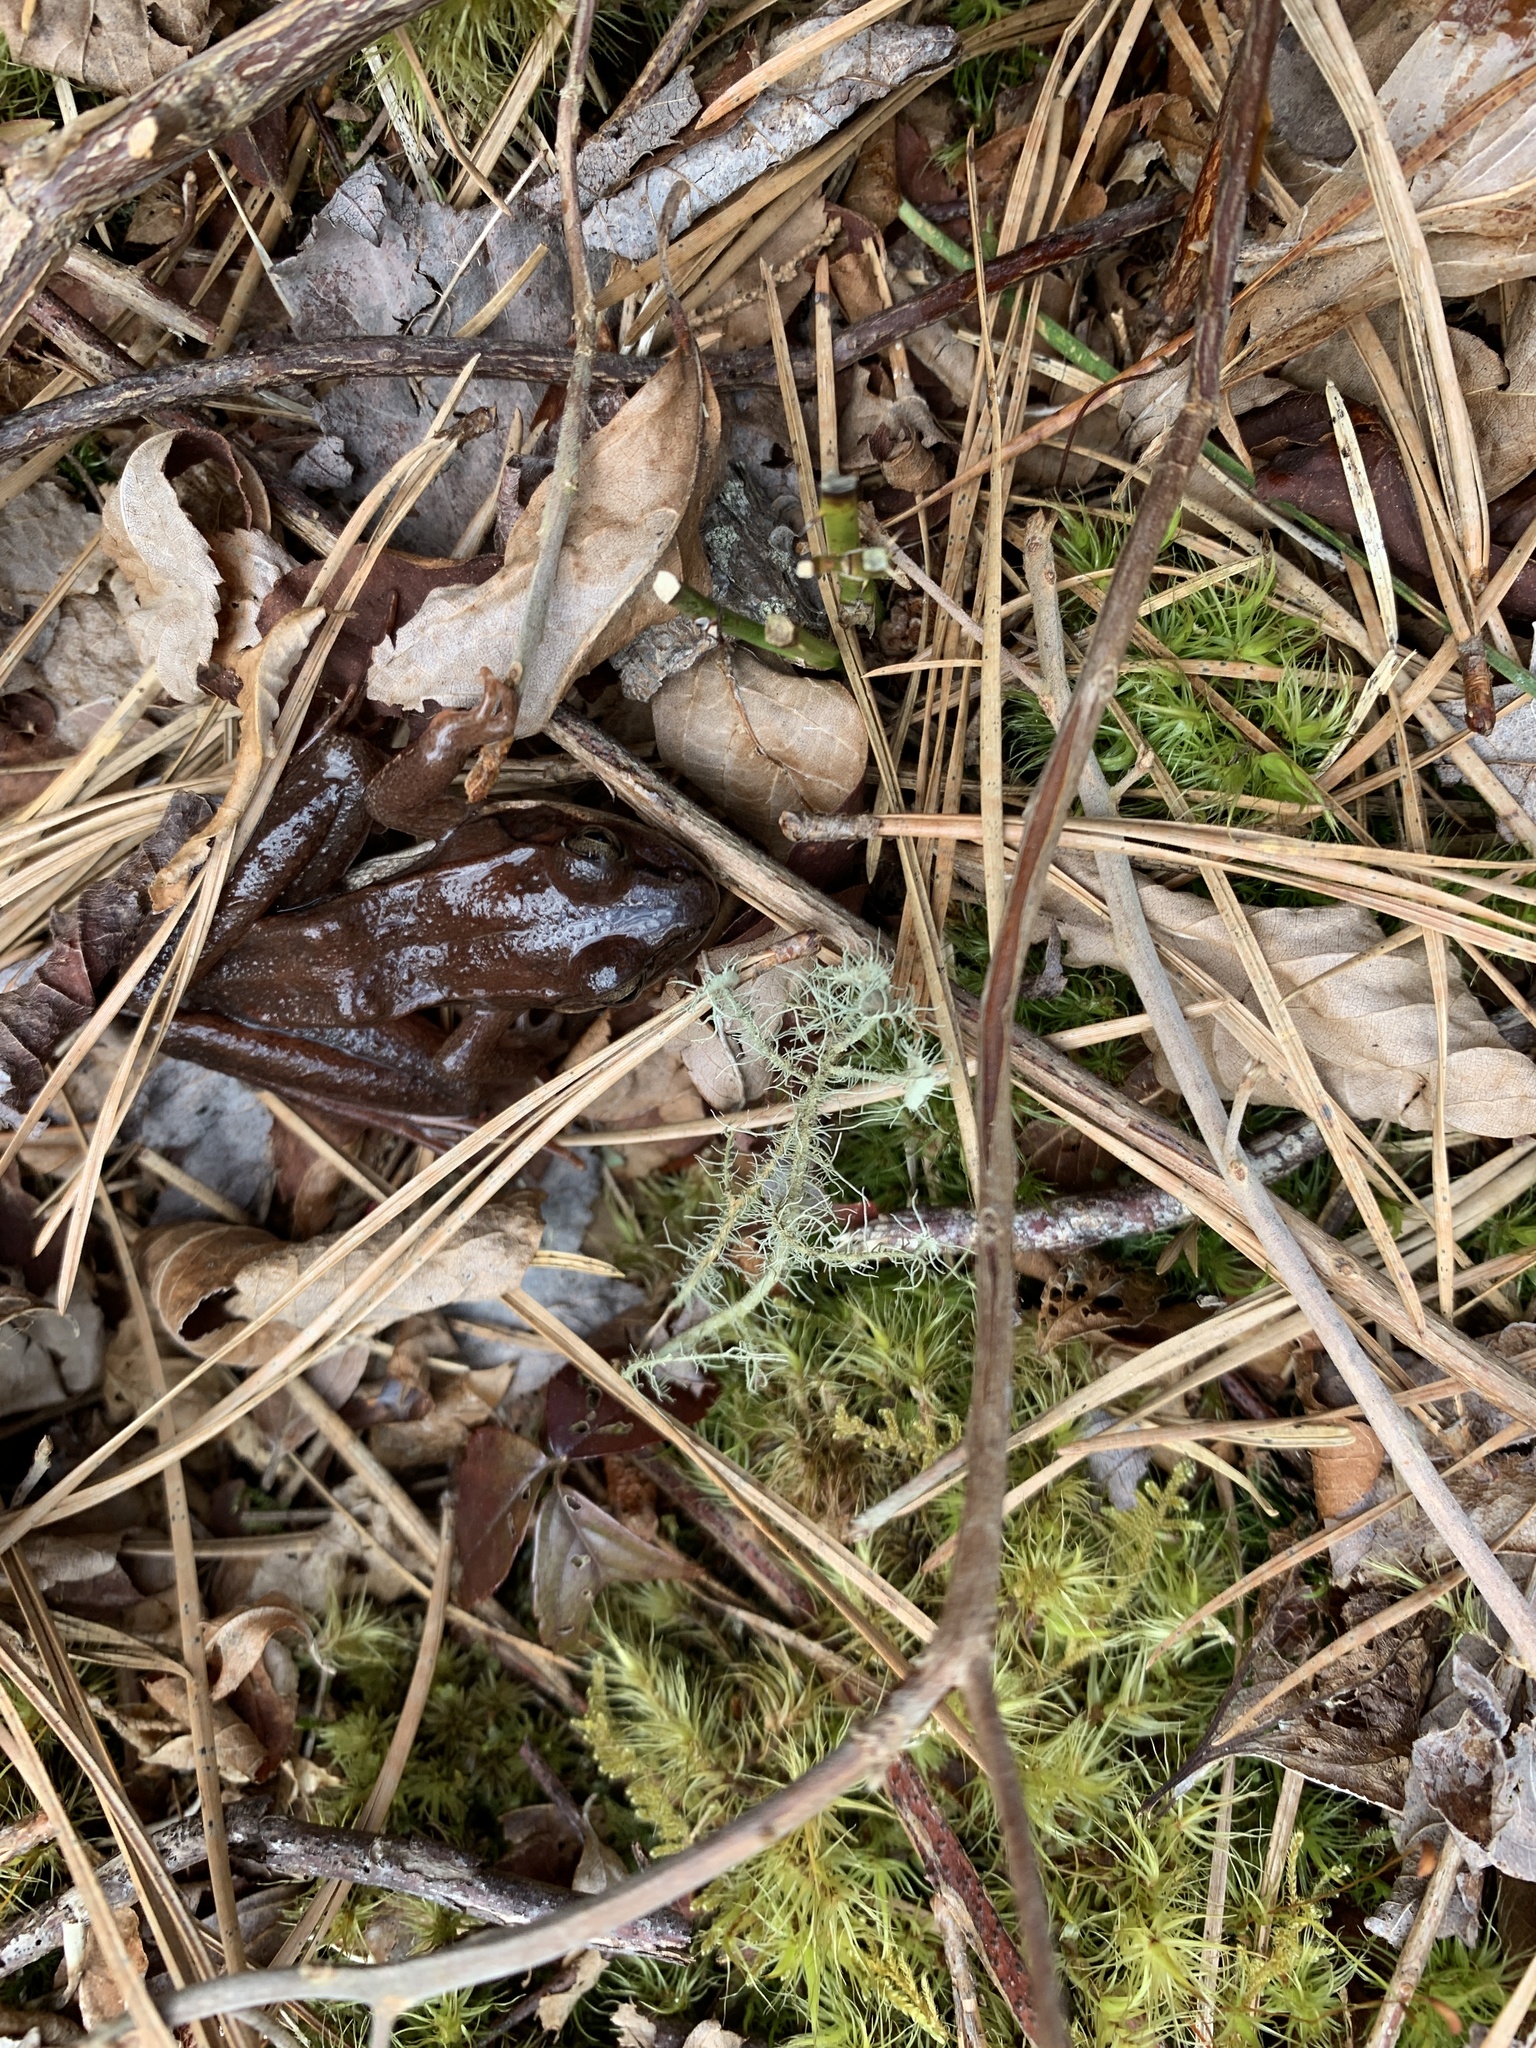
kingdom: Animalia
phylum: Chordata
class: Amphibia
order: Anura
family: Ranidae
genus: Lithobates
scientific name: Lithobates sylvaticus
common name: Wood frog
